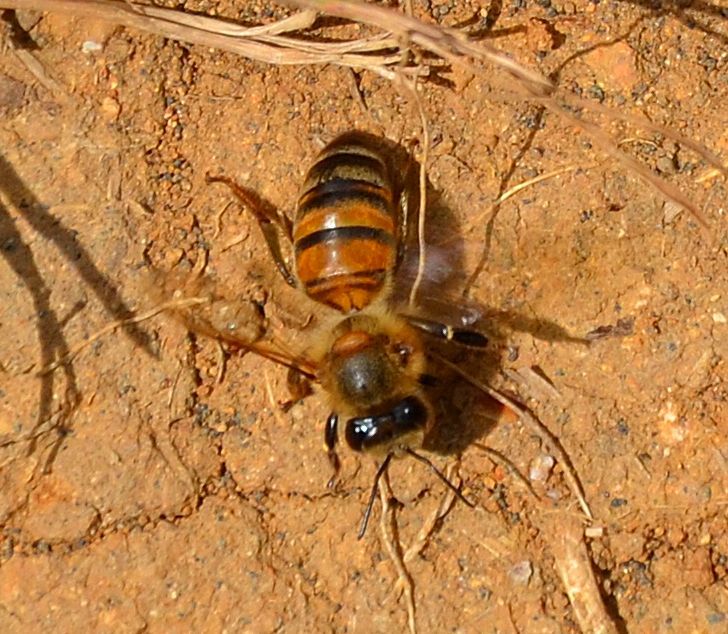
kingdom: Animalia
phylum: Arthropoda
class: Insecta
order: Hymenoptera
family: Apidae
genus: Apis
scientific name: Apis mellifera
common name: Honey bee
